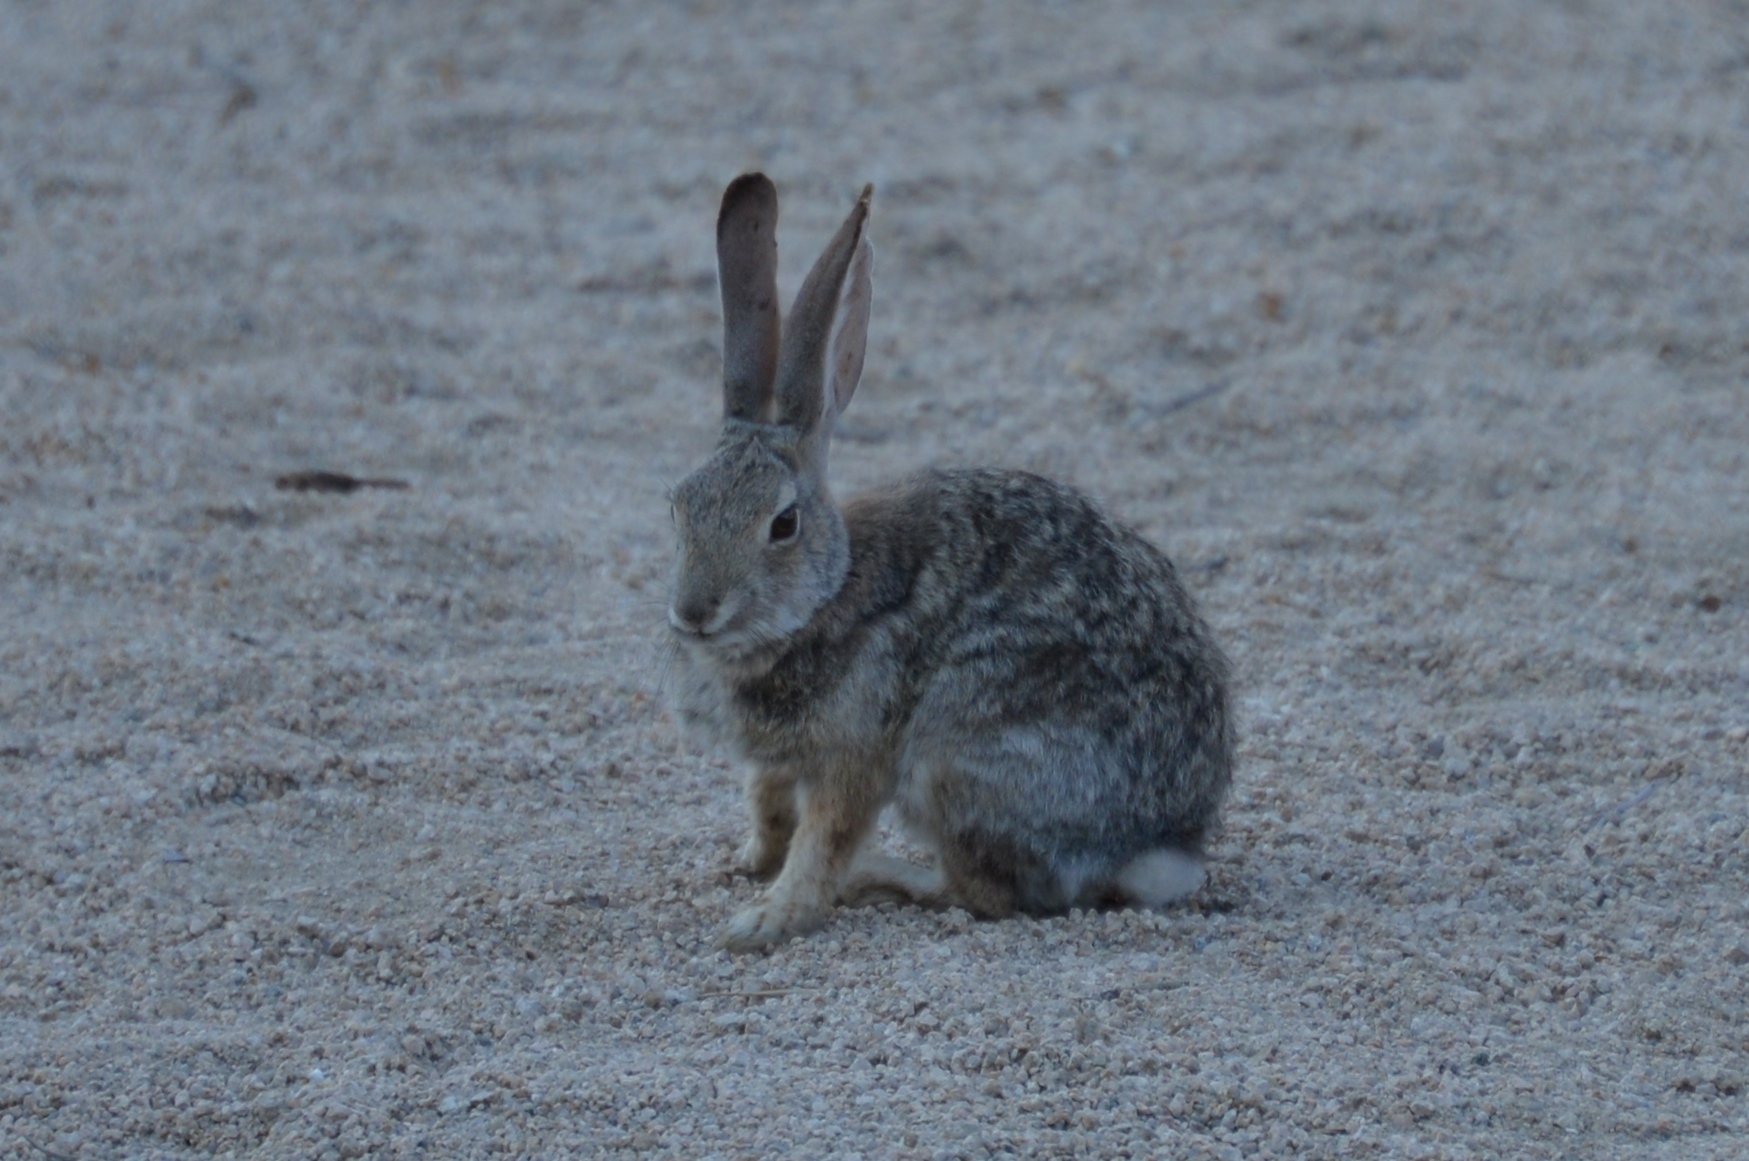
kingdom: Animalia
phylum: Chordata
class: Mammalia
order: Lagomorpha
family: Leporidae
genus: Sylvilagus
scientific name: Sylvilagus audubonii
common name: Desert cottontail
